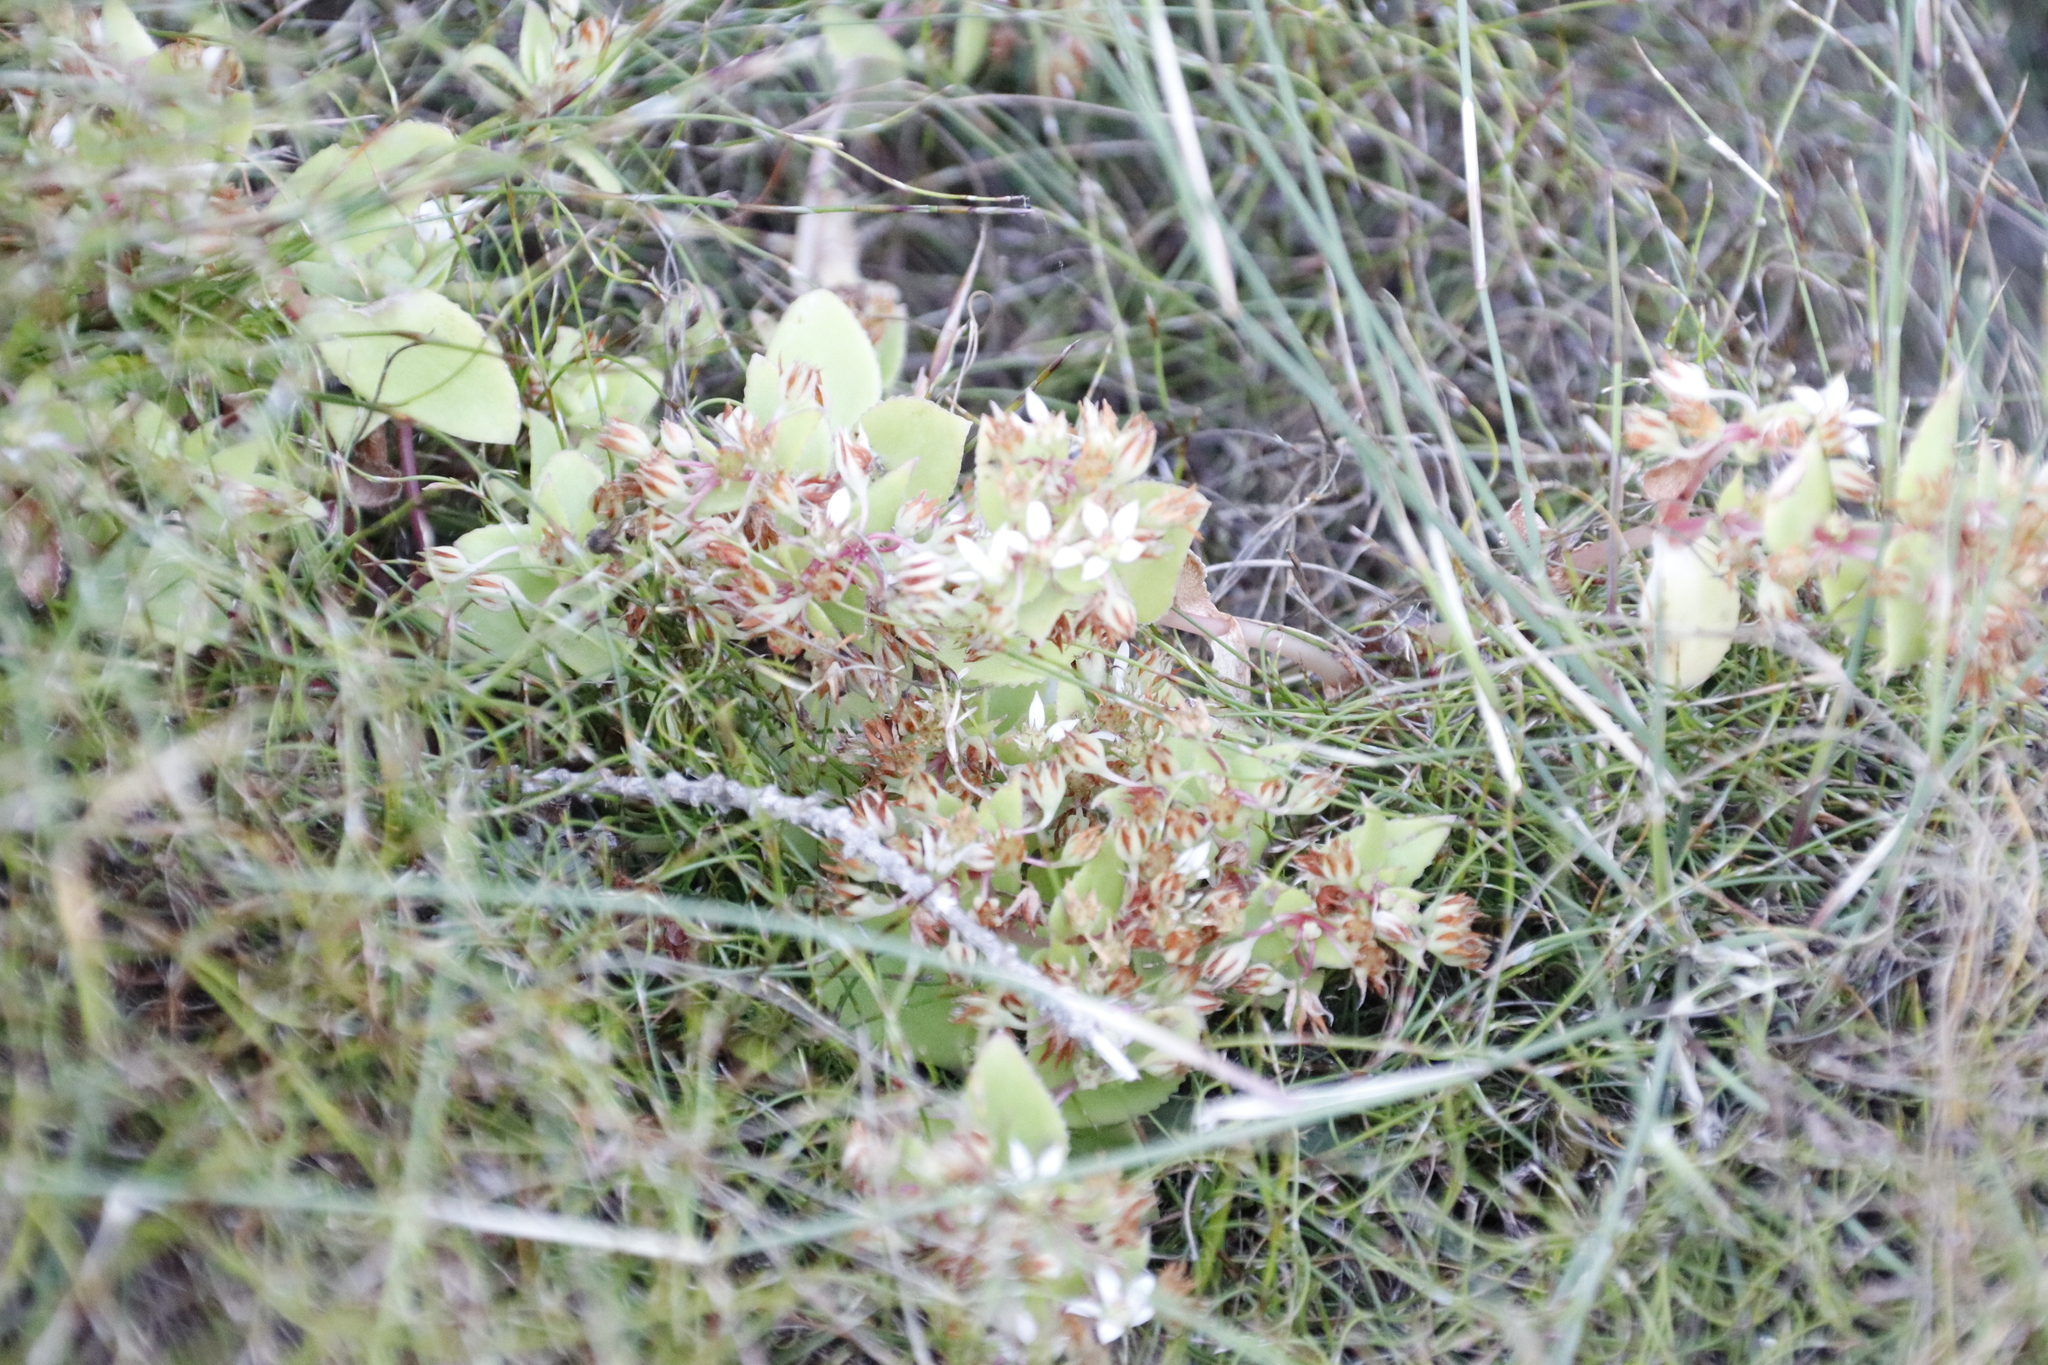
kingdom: Plantae
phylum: Tracheophyta
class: Magnoliopsida
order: Saxifragales
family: Crassulaceae
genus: Crassula
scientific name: Crassula pellucida
